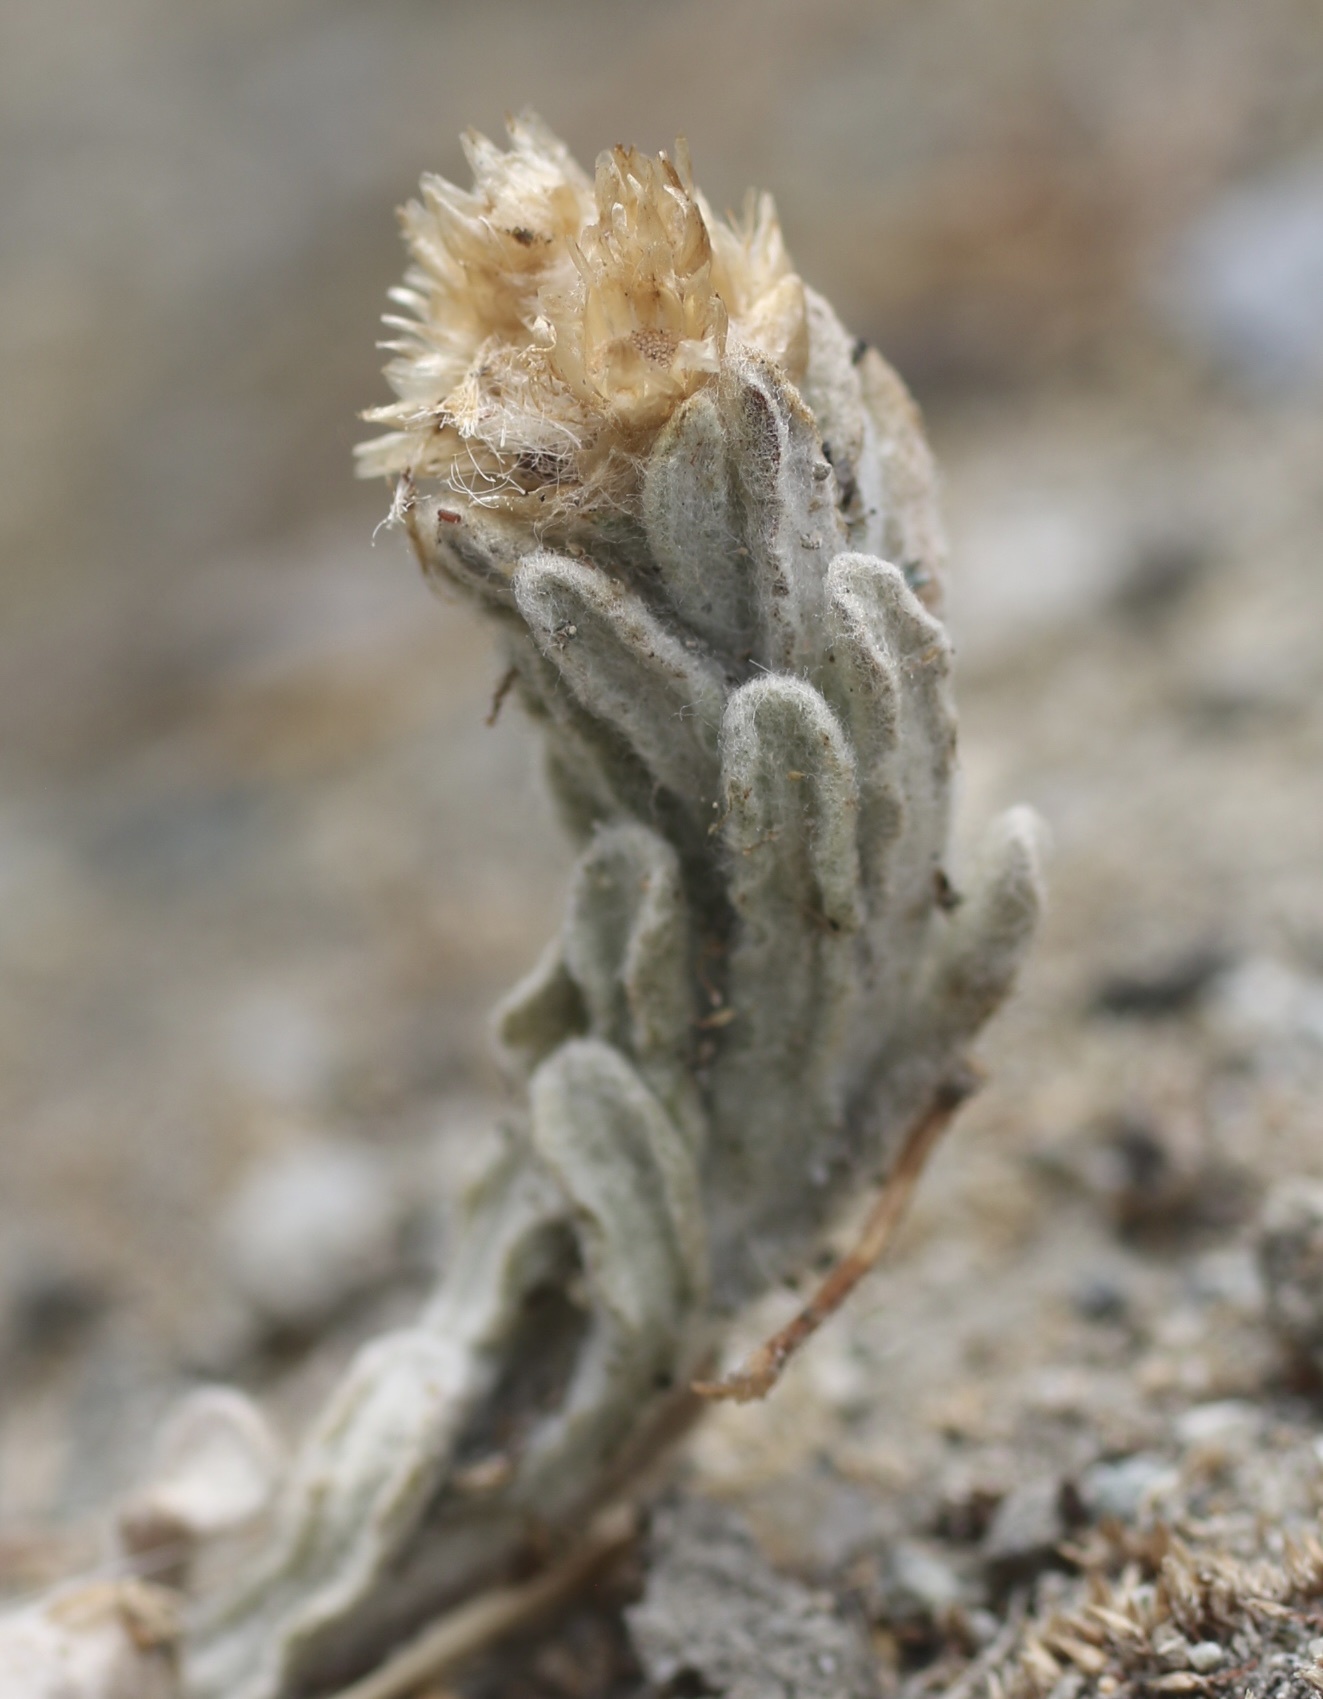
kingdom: Plantae
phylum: Tracheophyta
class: Magnoliopsida
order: Asterales
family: Asteraceae
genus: Helichrysum
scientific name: Helichrysum luteoalbum
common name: Daisy
